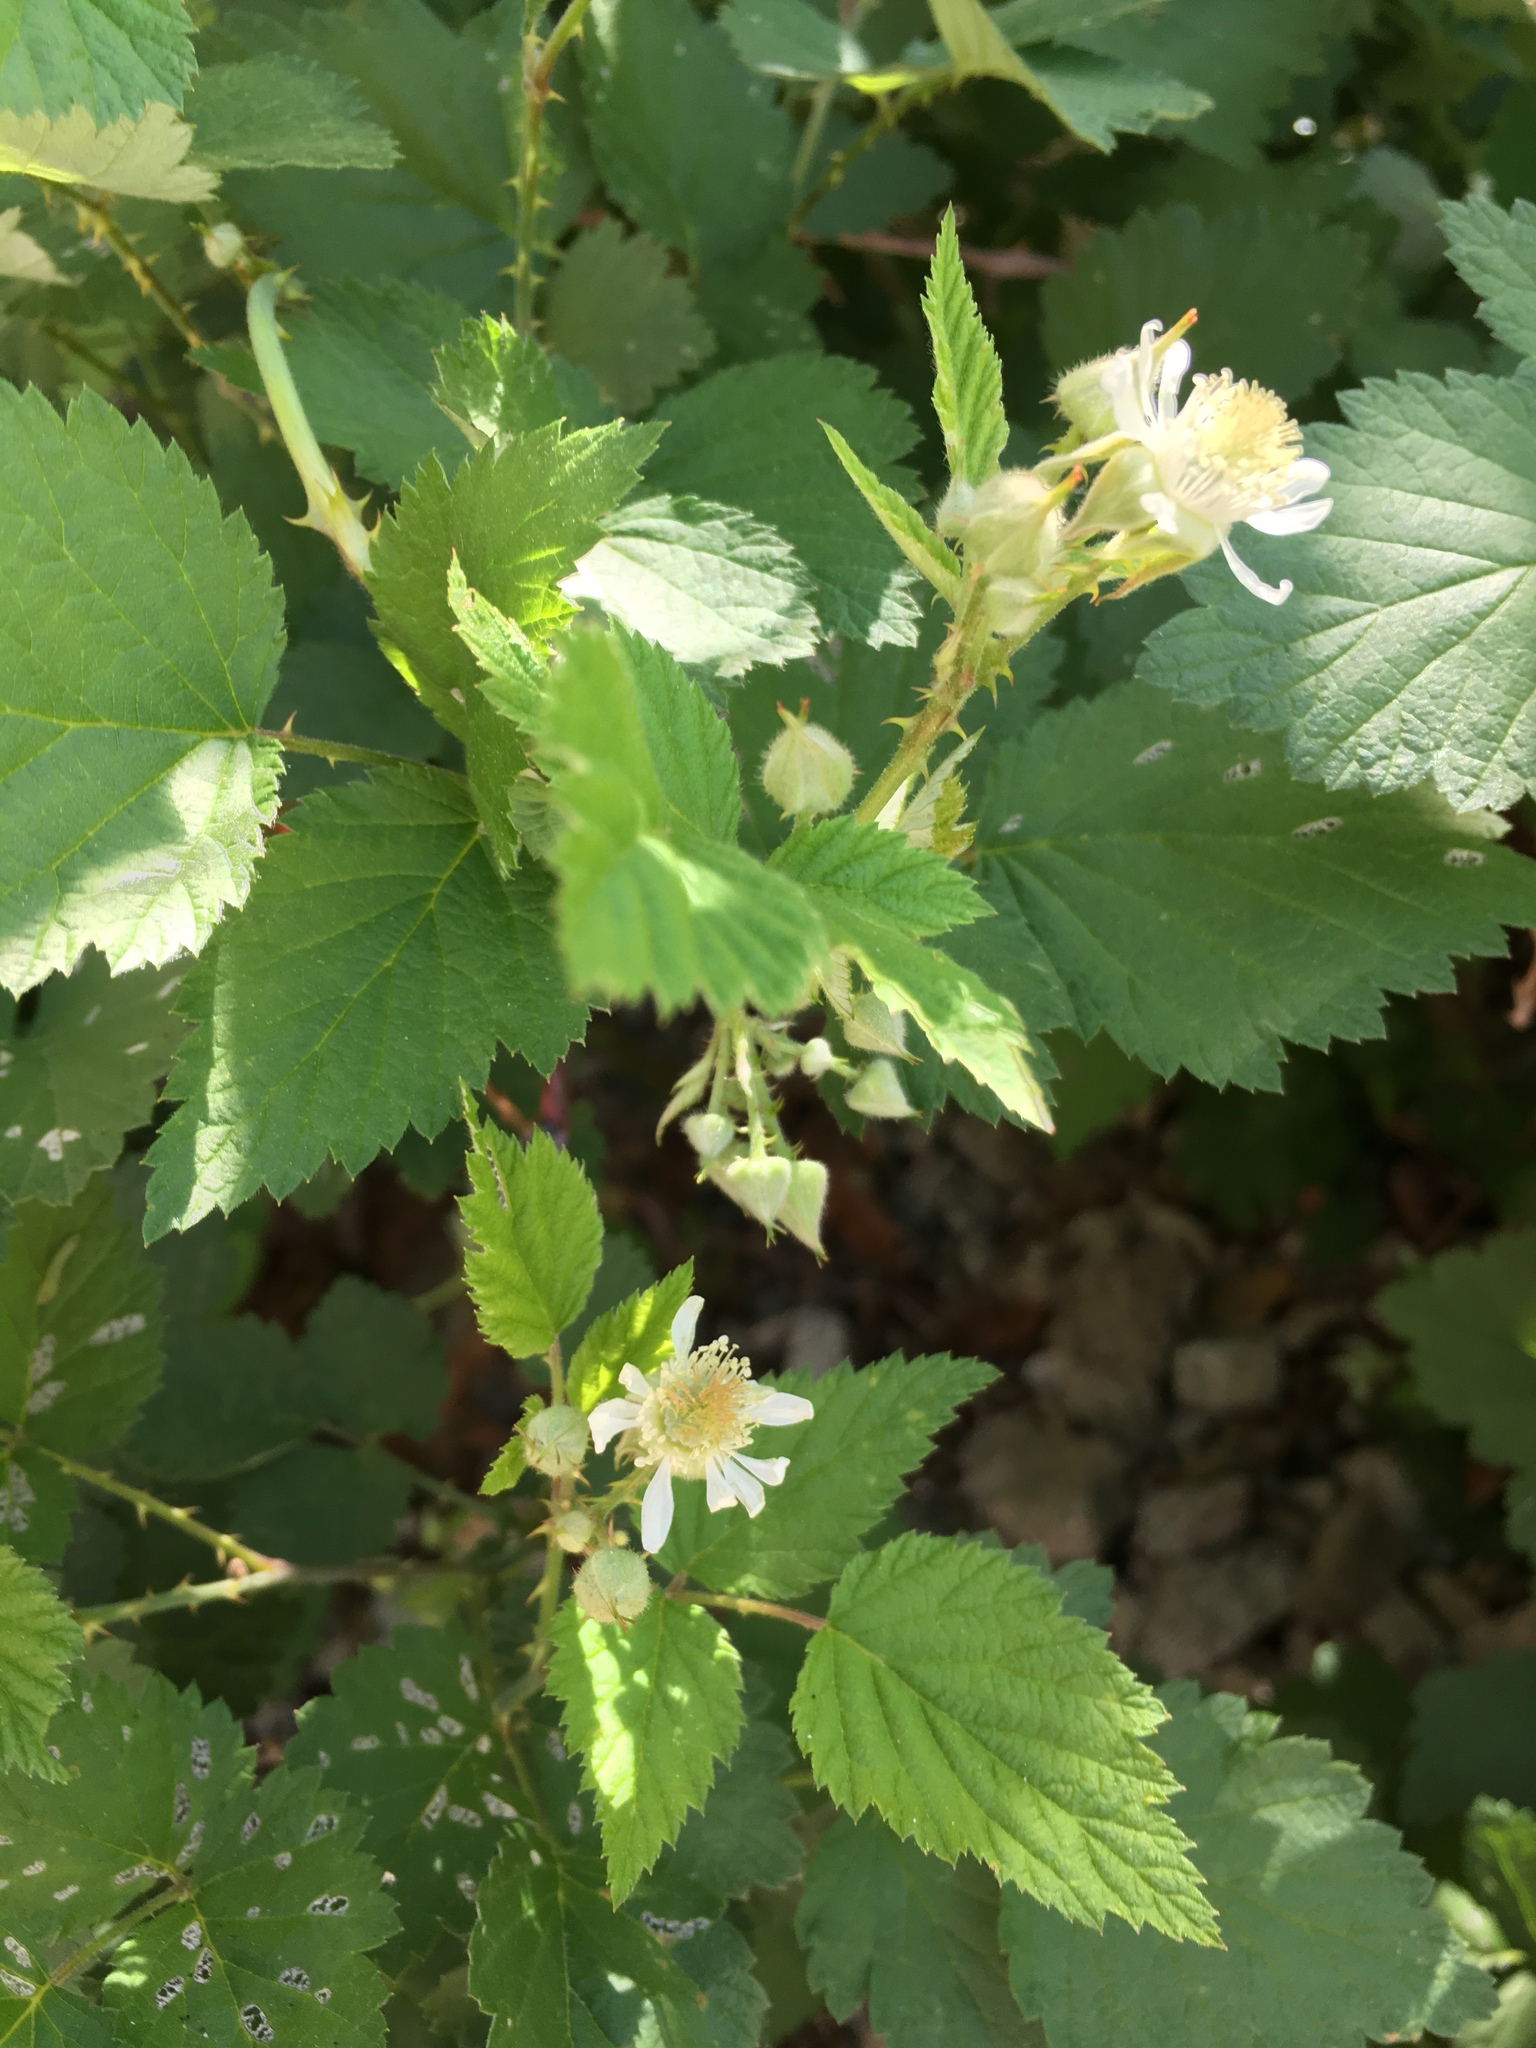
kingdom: Plantae
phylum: Tracheophyta
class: Magnoliopsida
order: Rosales
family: Rosaceae
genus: Rubus
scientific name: Rubus ursinus
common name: Pacific blackberry
